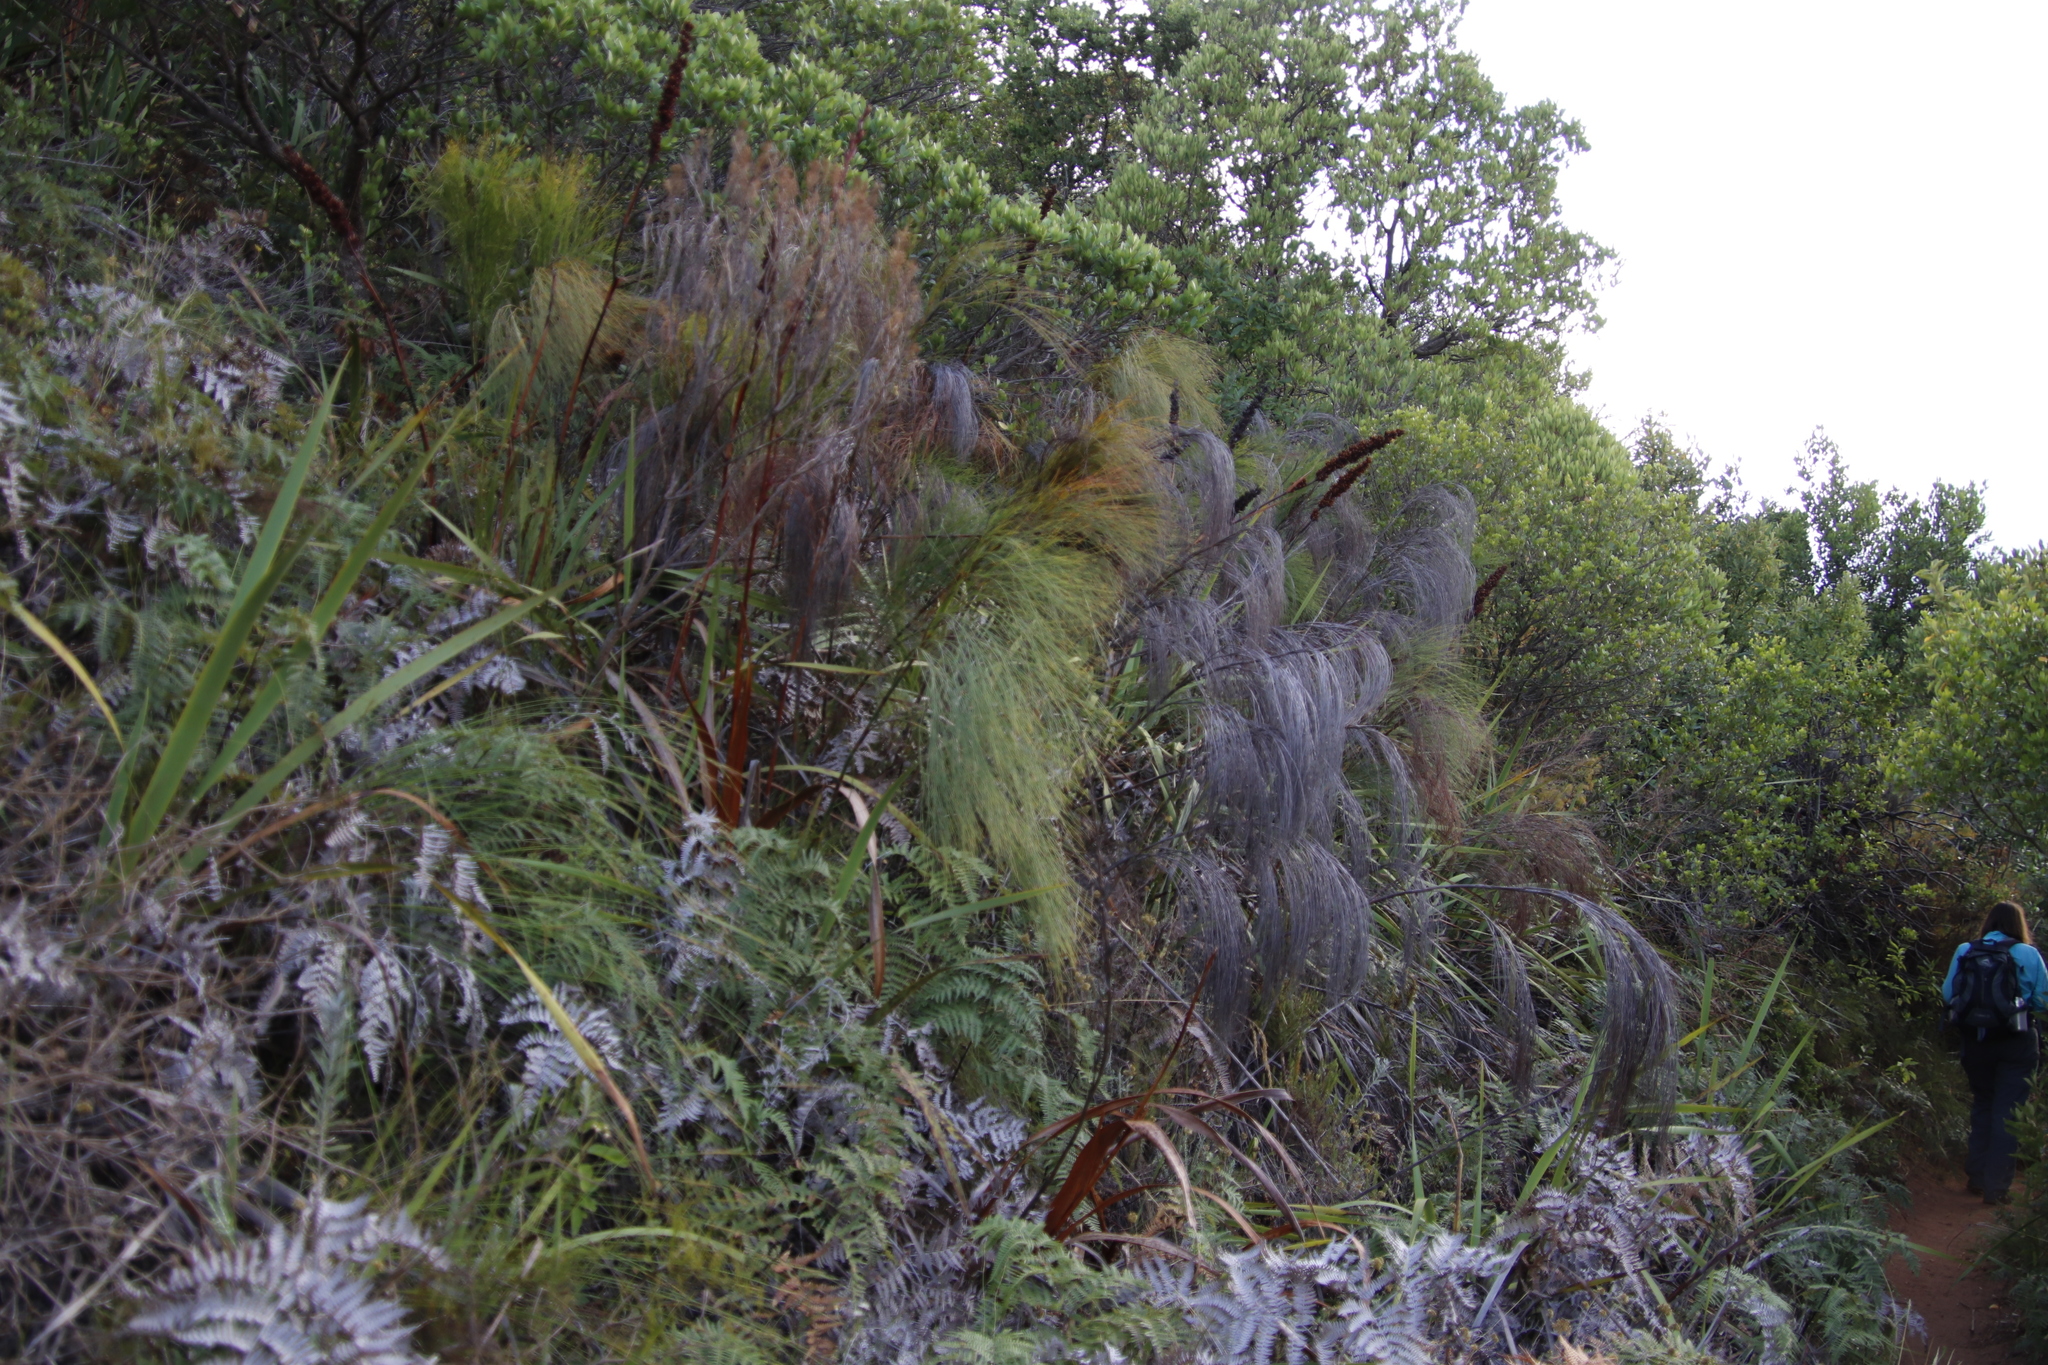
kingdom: Plantae
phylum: Tracheophyta
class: Liliopsida
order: Poales
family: Restionaceae
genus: Cannomois
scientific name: Cannomois virgata
